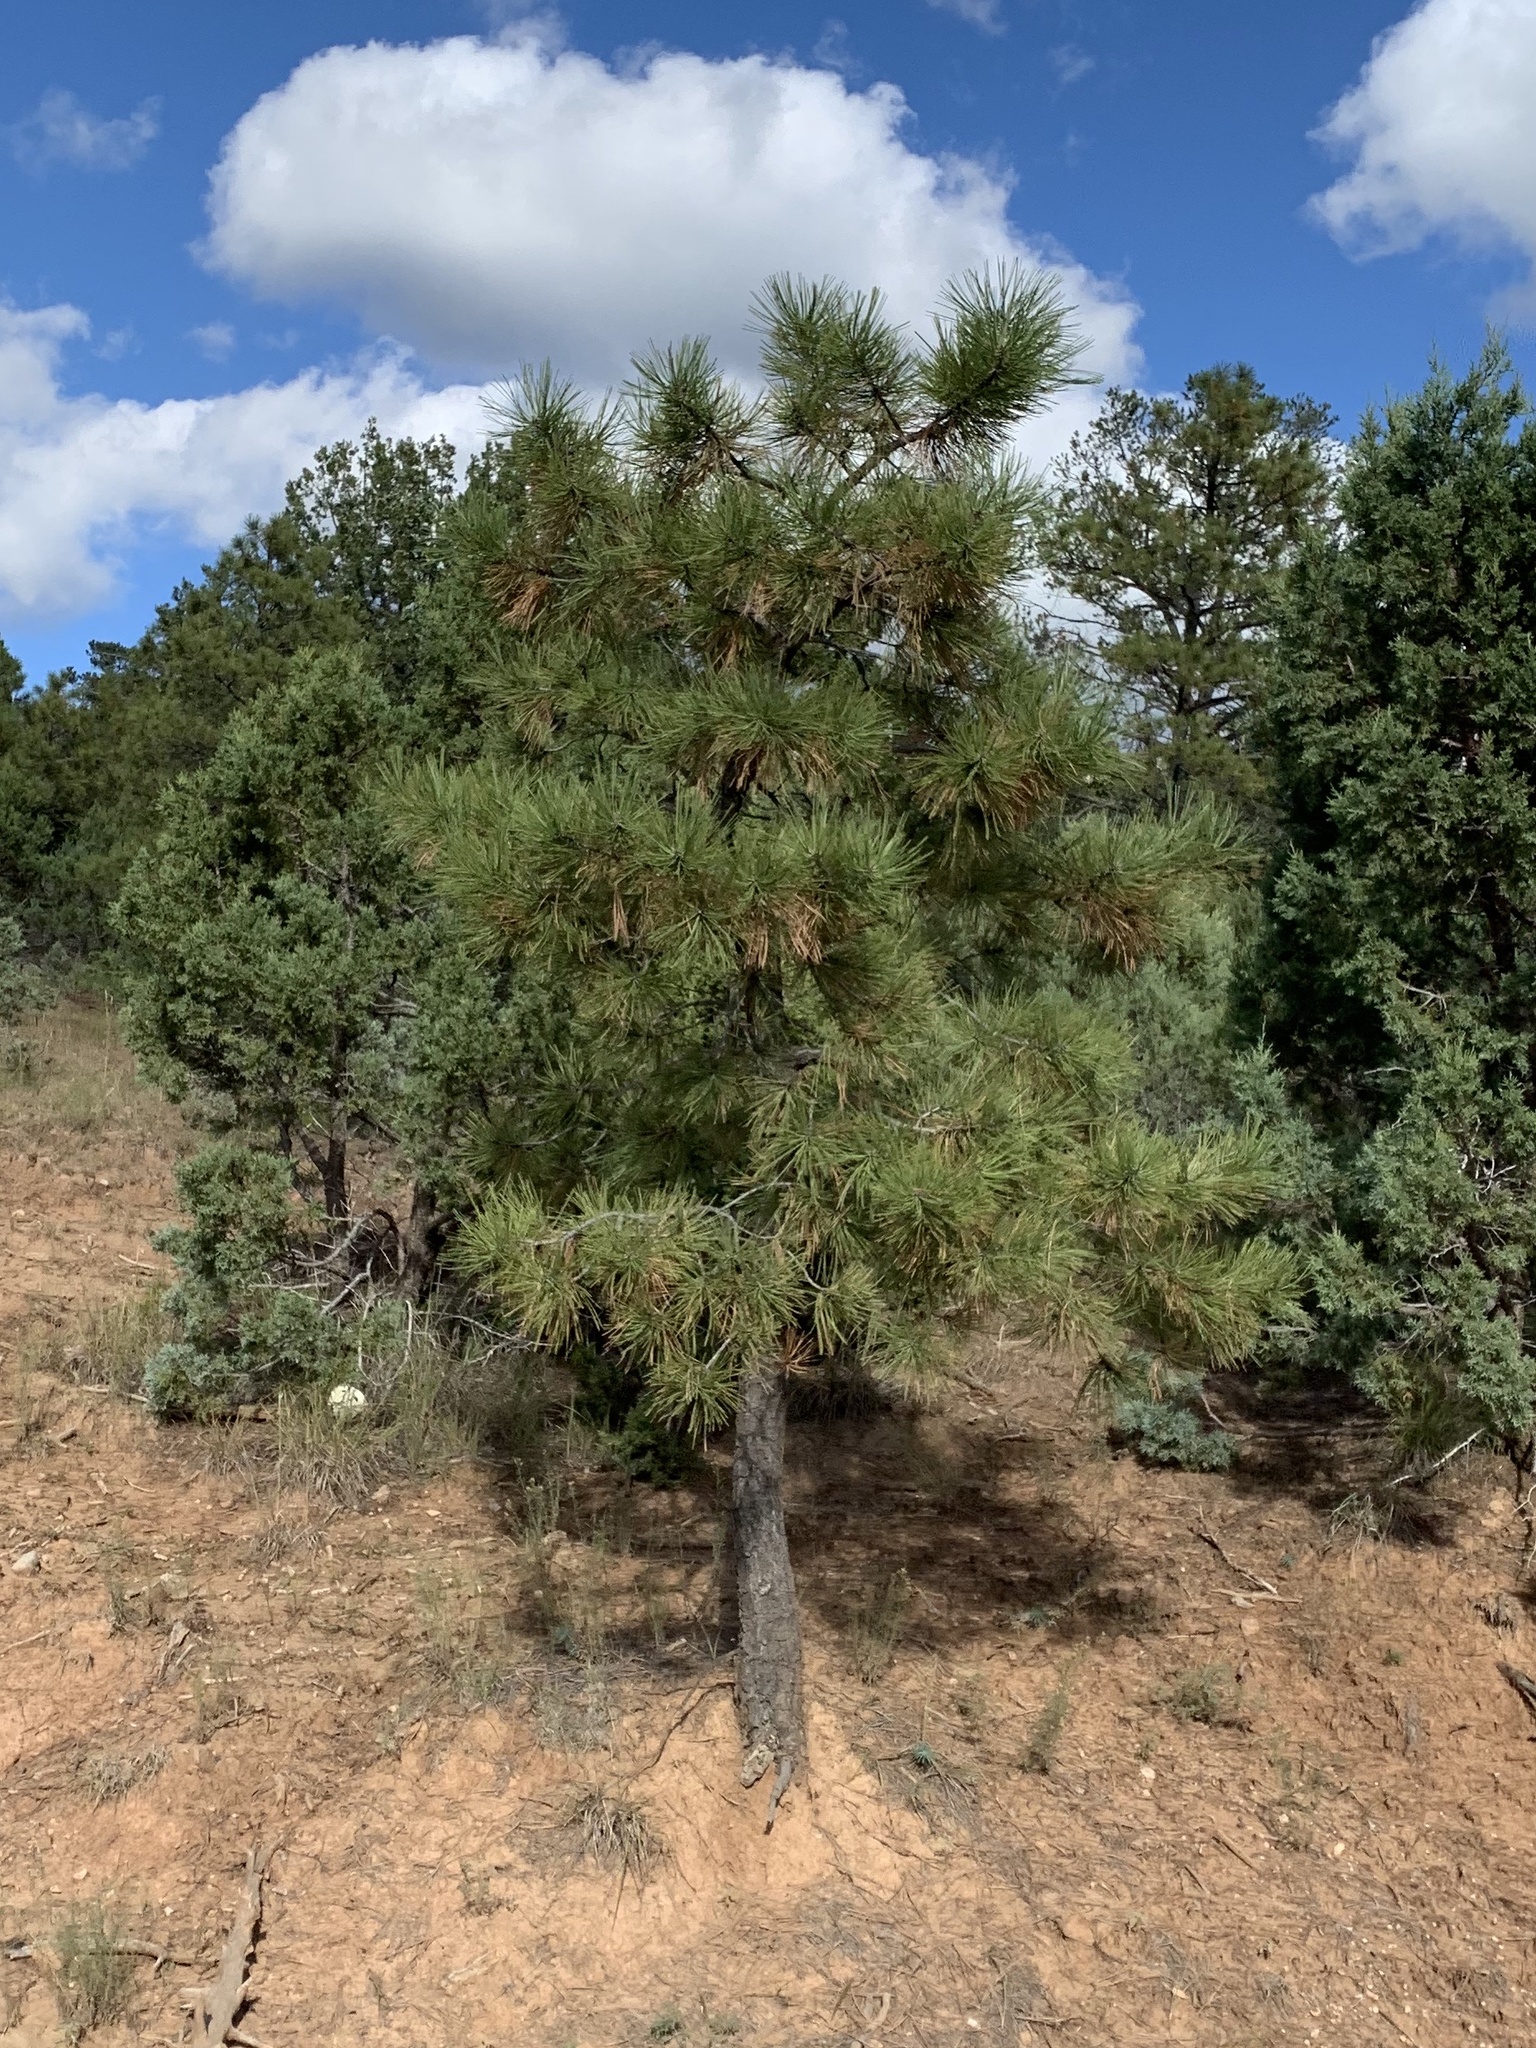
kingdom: Plantae
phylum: Tracheophyta
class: Pinopsida
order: Pinales
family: Pinaceae
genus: Pinus
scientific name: Pinus ponderosa
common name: Western yellow-pine
